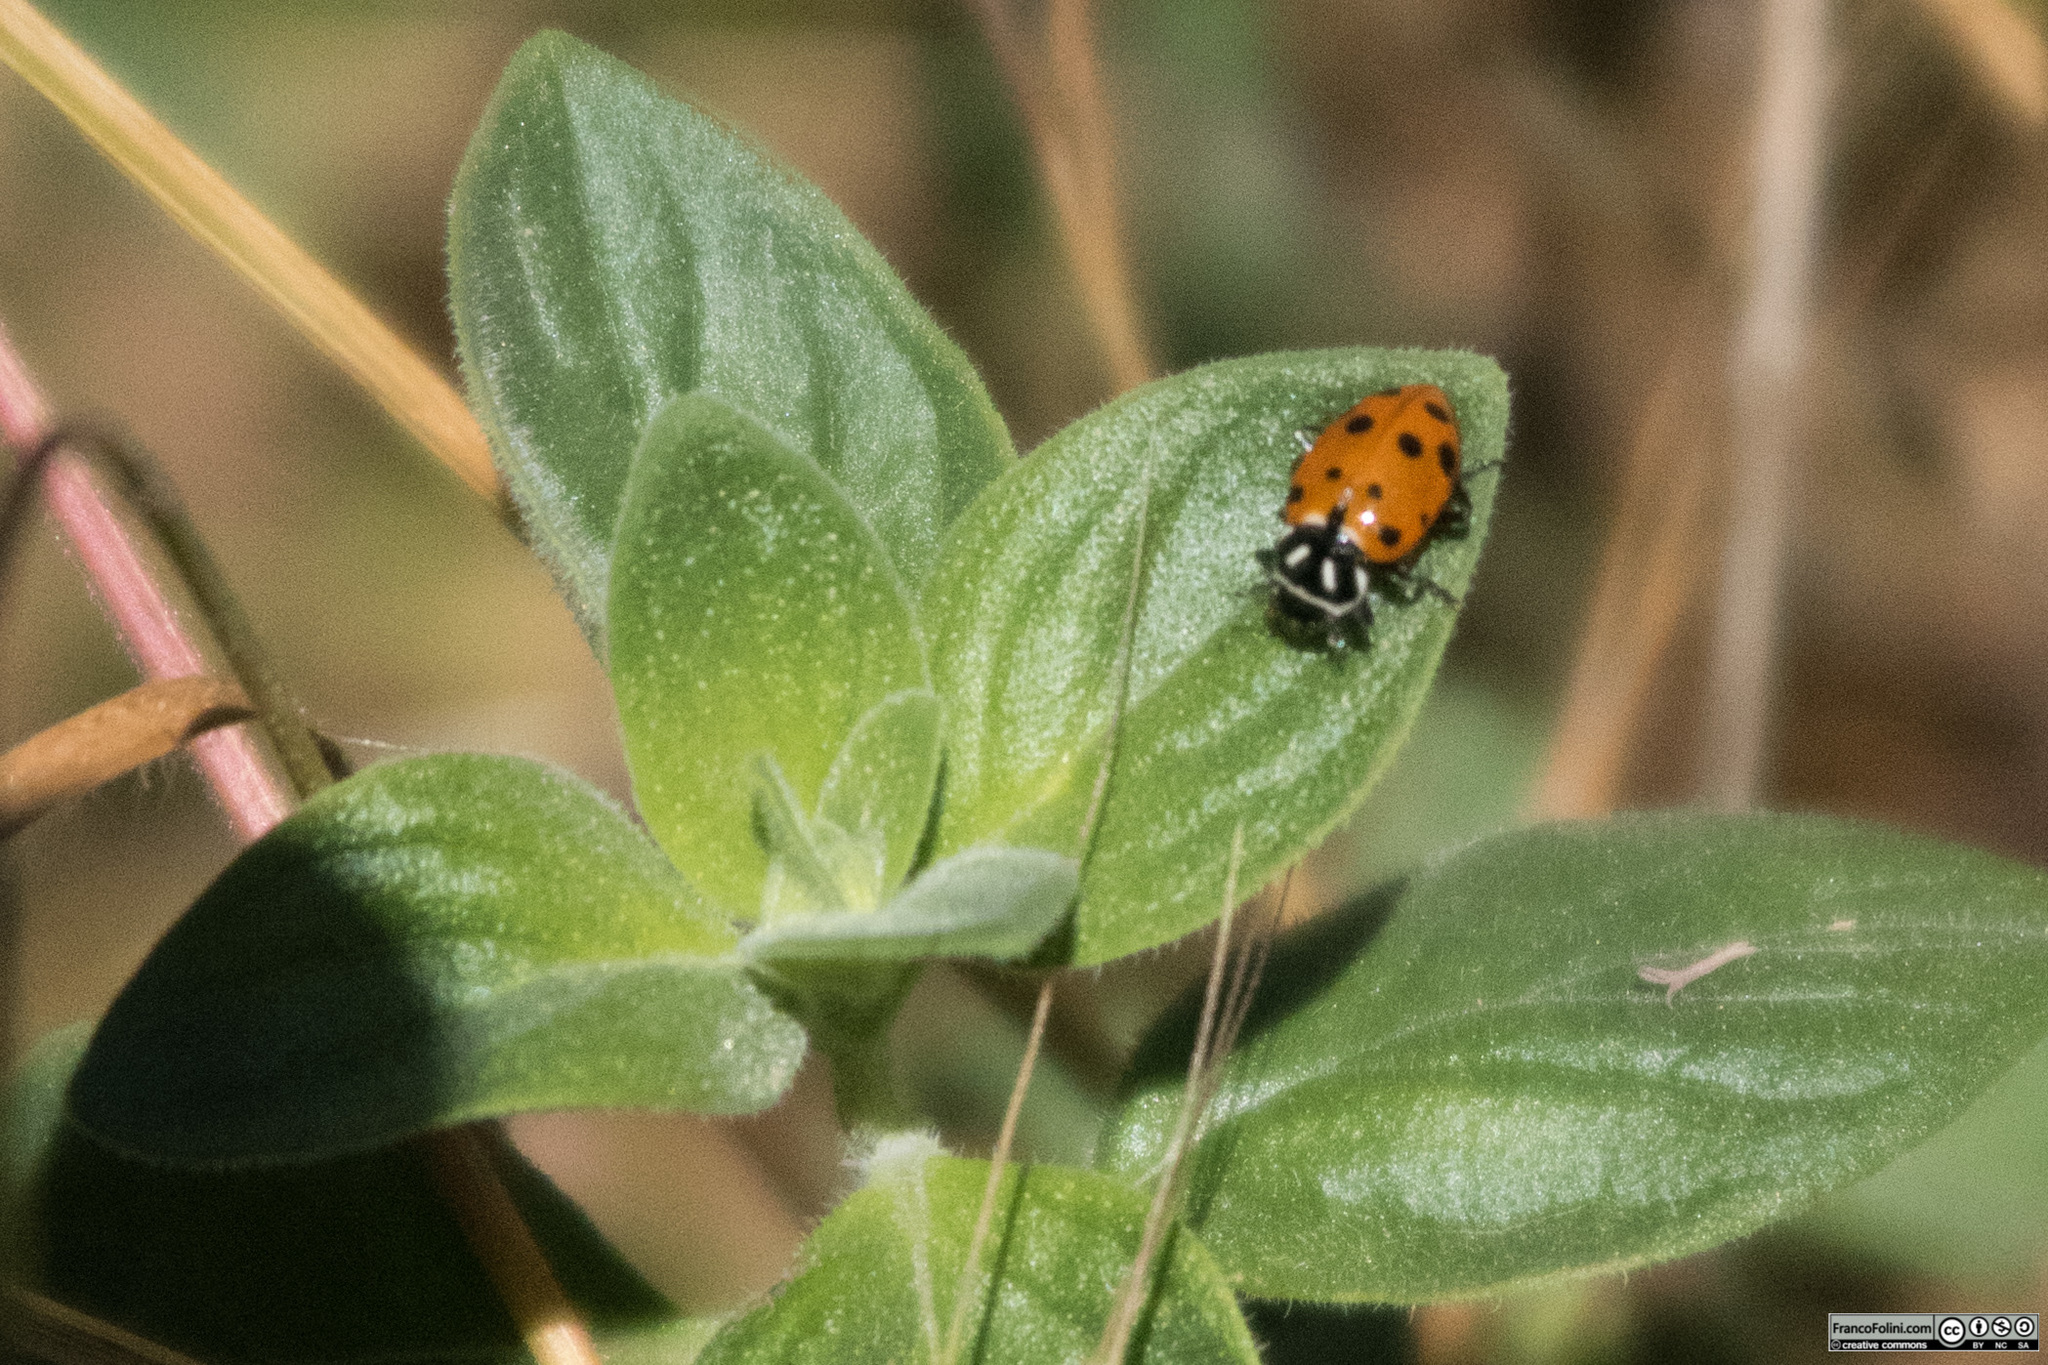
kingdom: Animalia
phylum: Arthropoda
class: Insecta
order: Coleoptera
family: Coccinellidae
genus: Hippodamia
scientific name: Hippodamia convergens
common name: Convergent lady beetle
